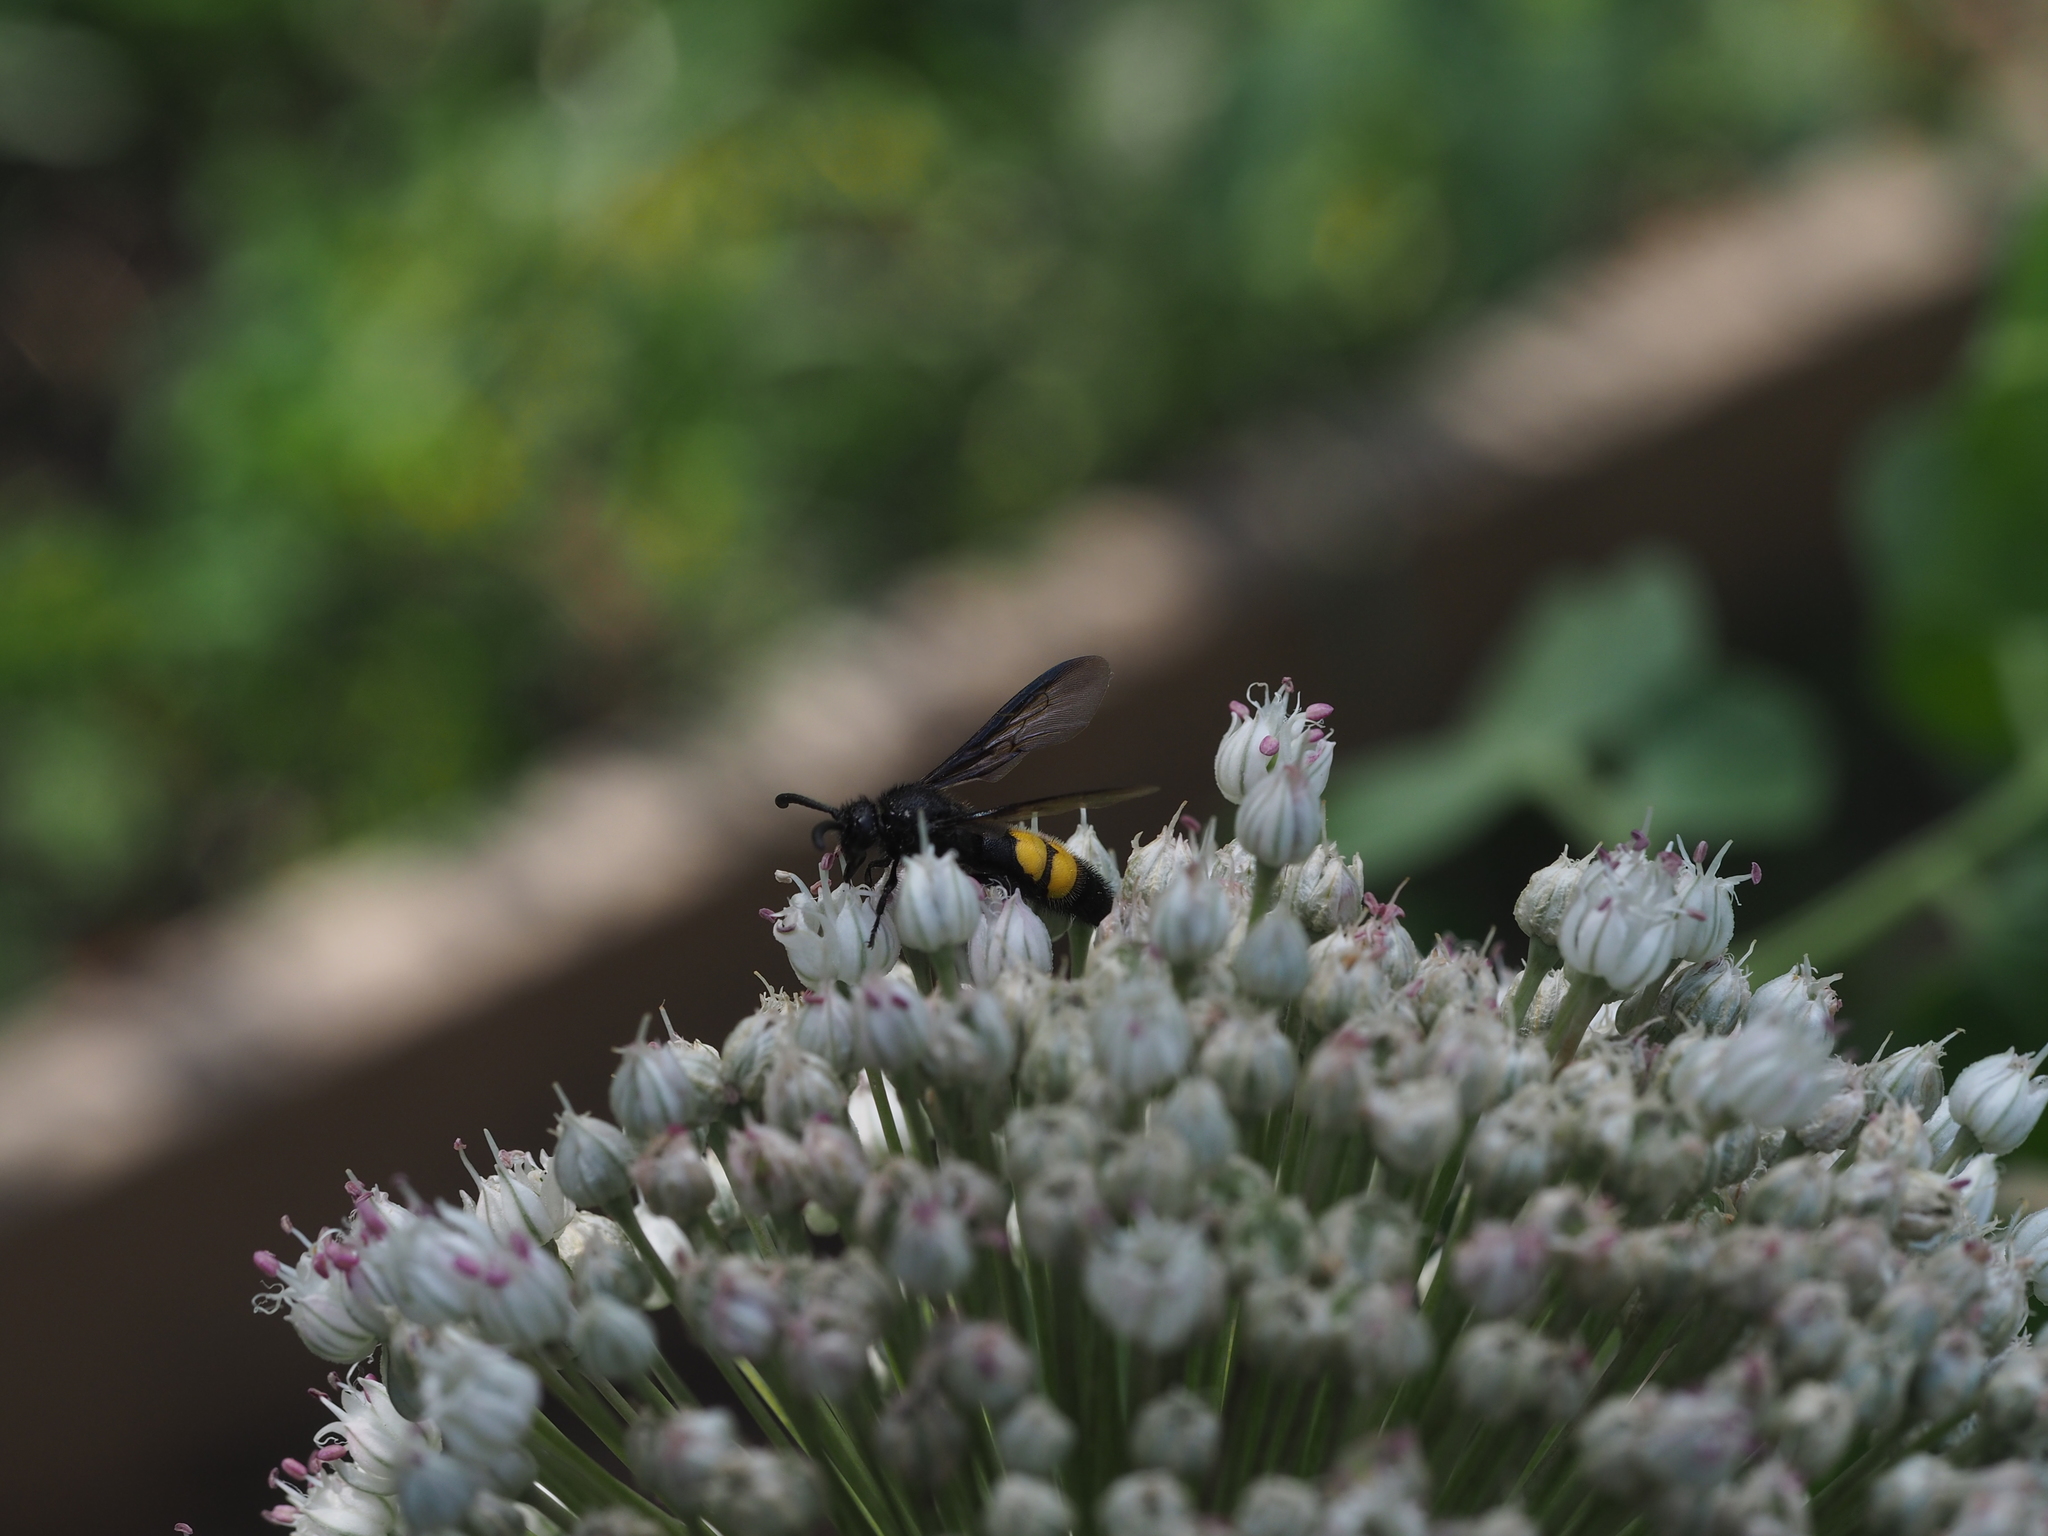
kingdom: Animalia
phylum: Arthropoda
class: Insecta
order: Hymenoptera
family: Scoliidae
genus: Scolia
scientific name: Scolia hirta
